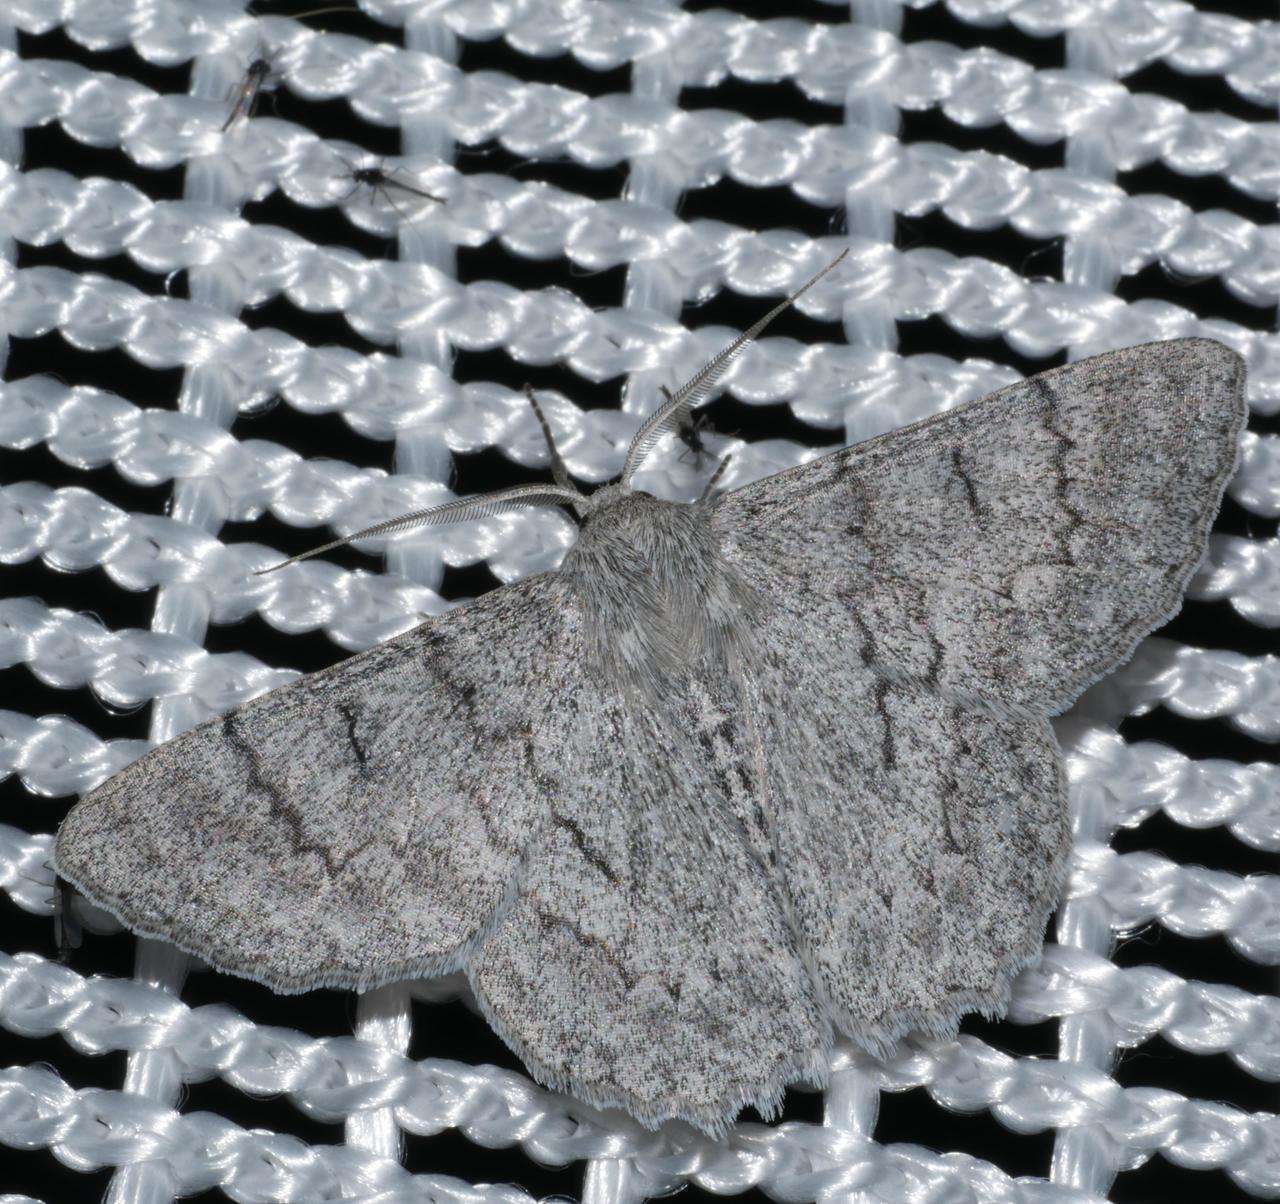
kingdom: Animalia
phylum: Arthropoda
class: Insecta
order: Lepidoptera
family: Geometridae
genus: Crypsiphona
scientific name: Crypsiphona ocultaria
